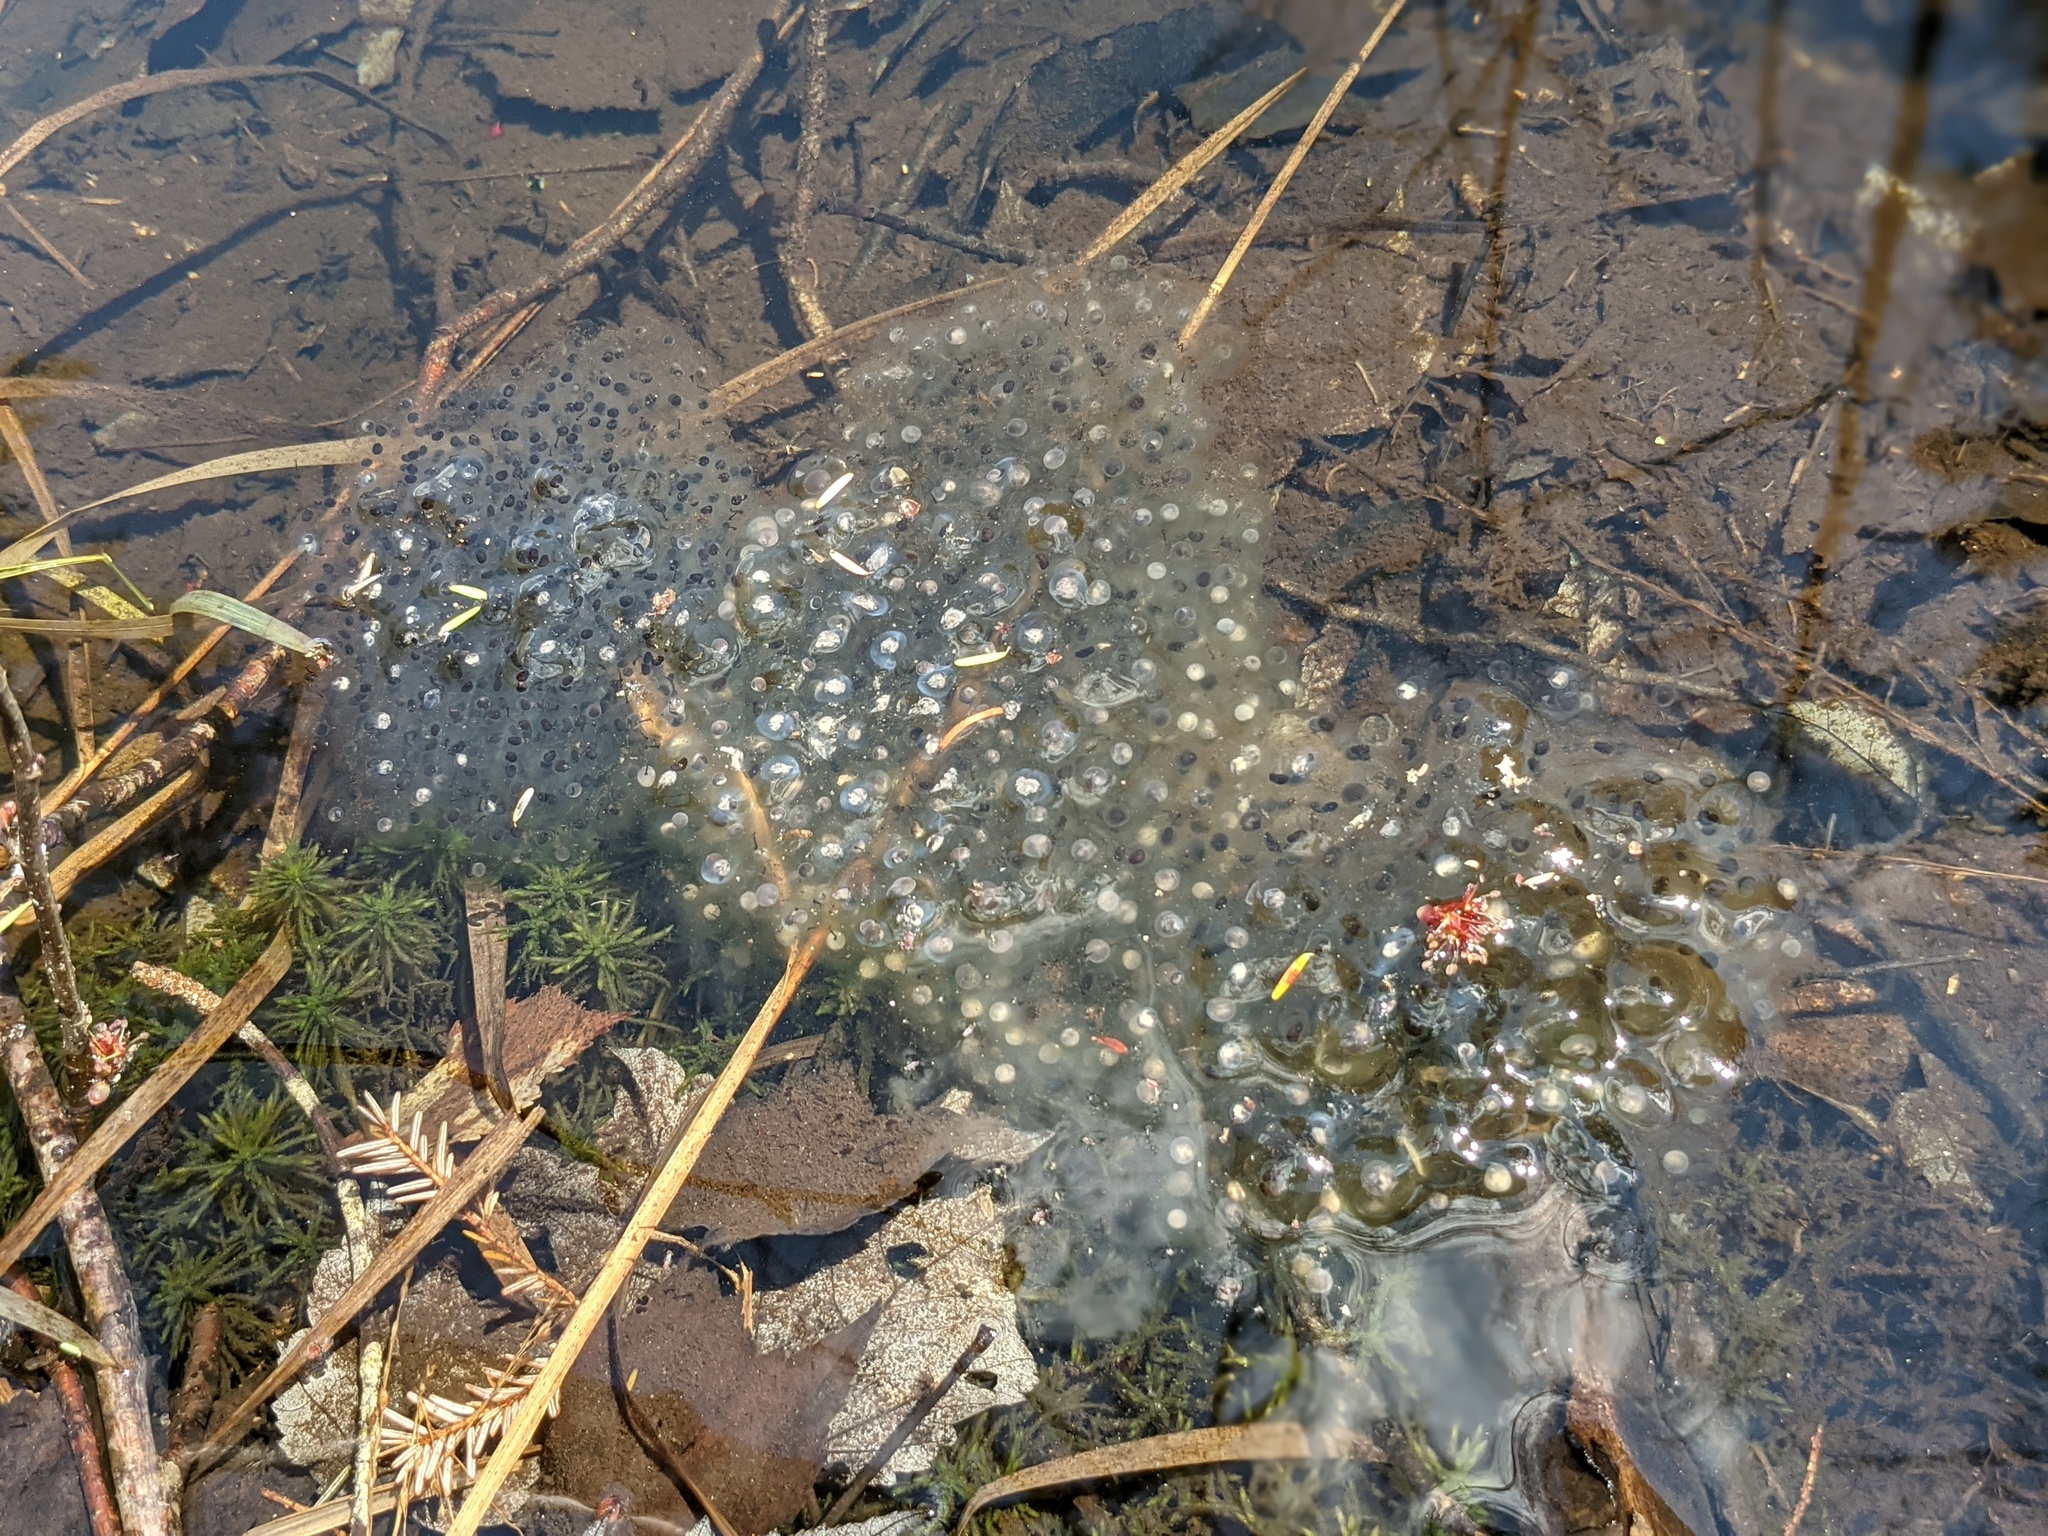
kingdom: Animalia
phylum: Chordata
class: Amphibia
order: Anura
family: Ranidae
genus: Lithobates
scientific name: Lithobates sylvaticus
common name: Wood frog
